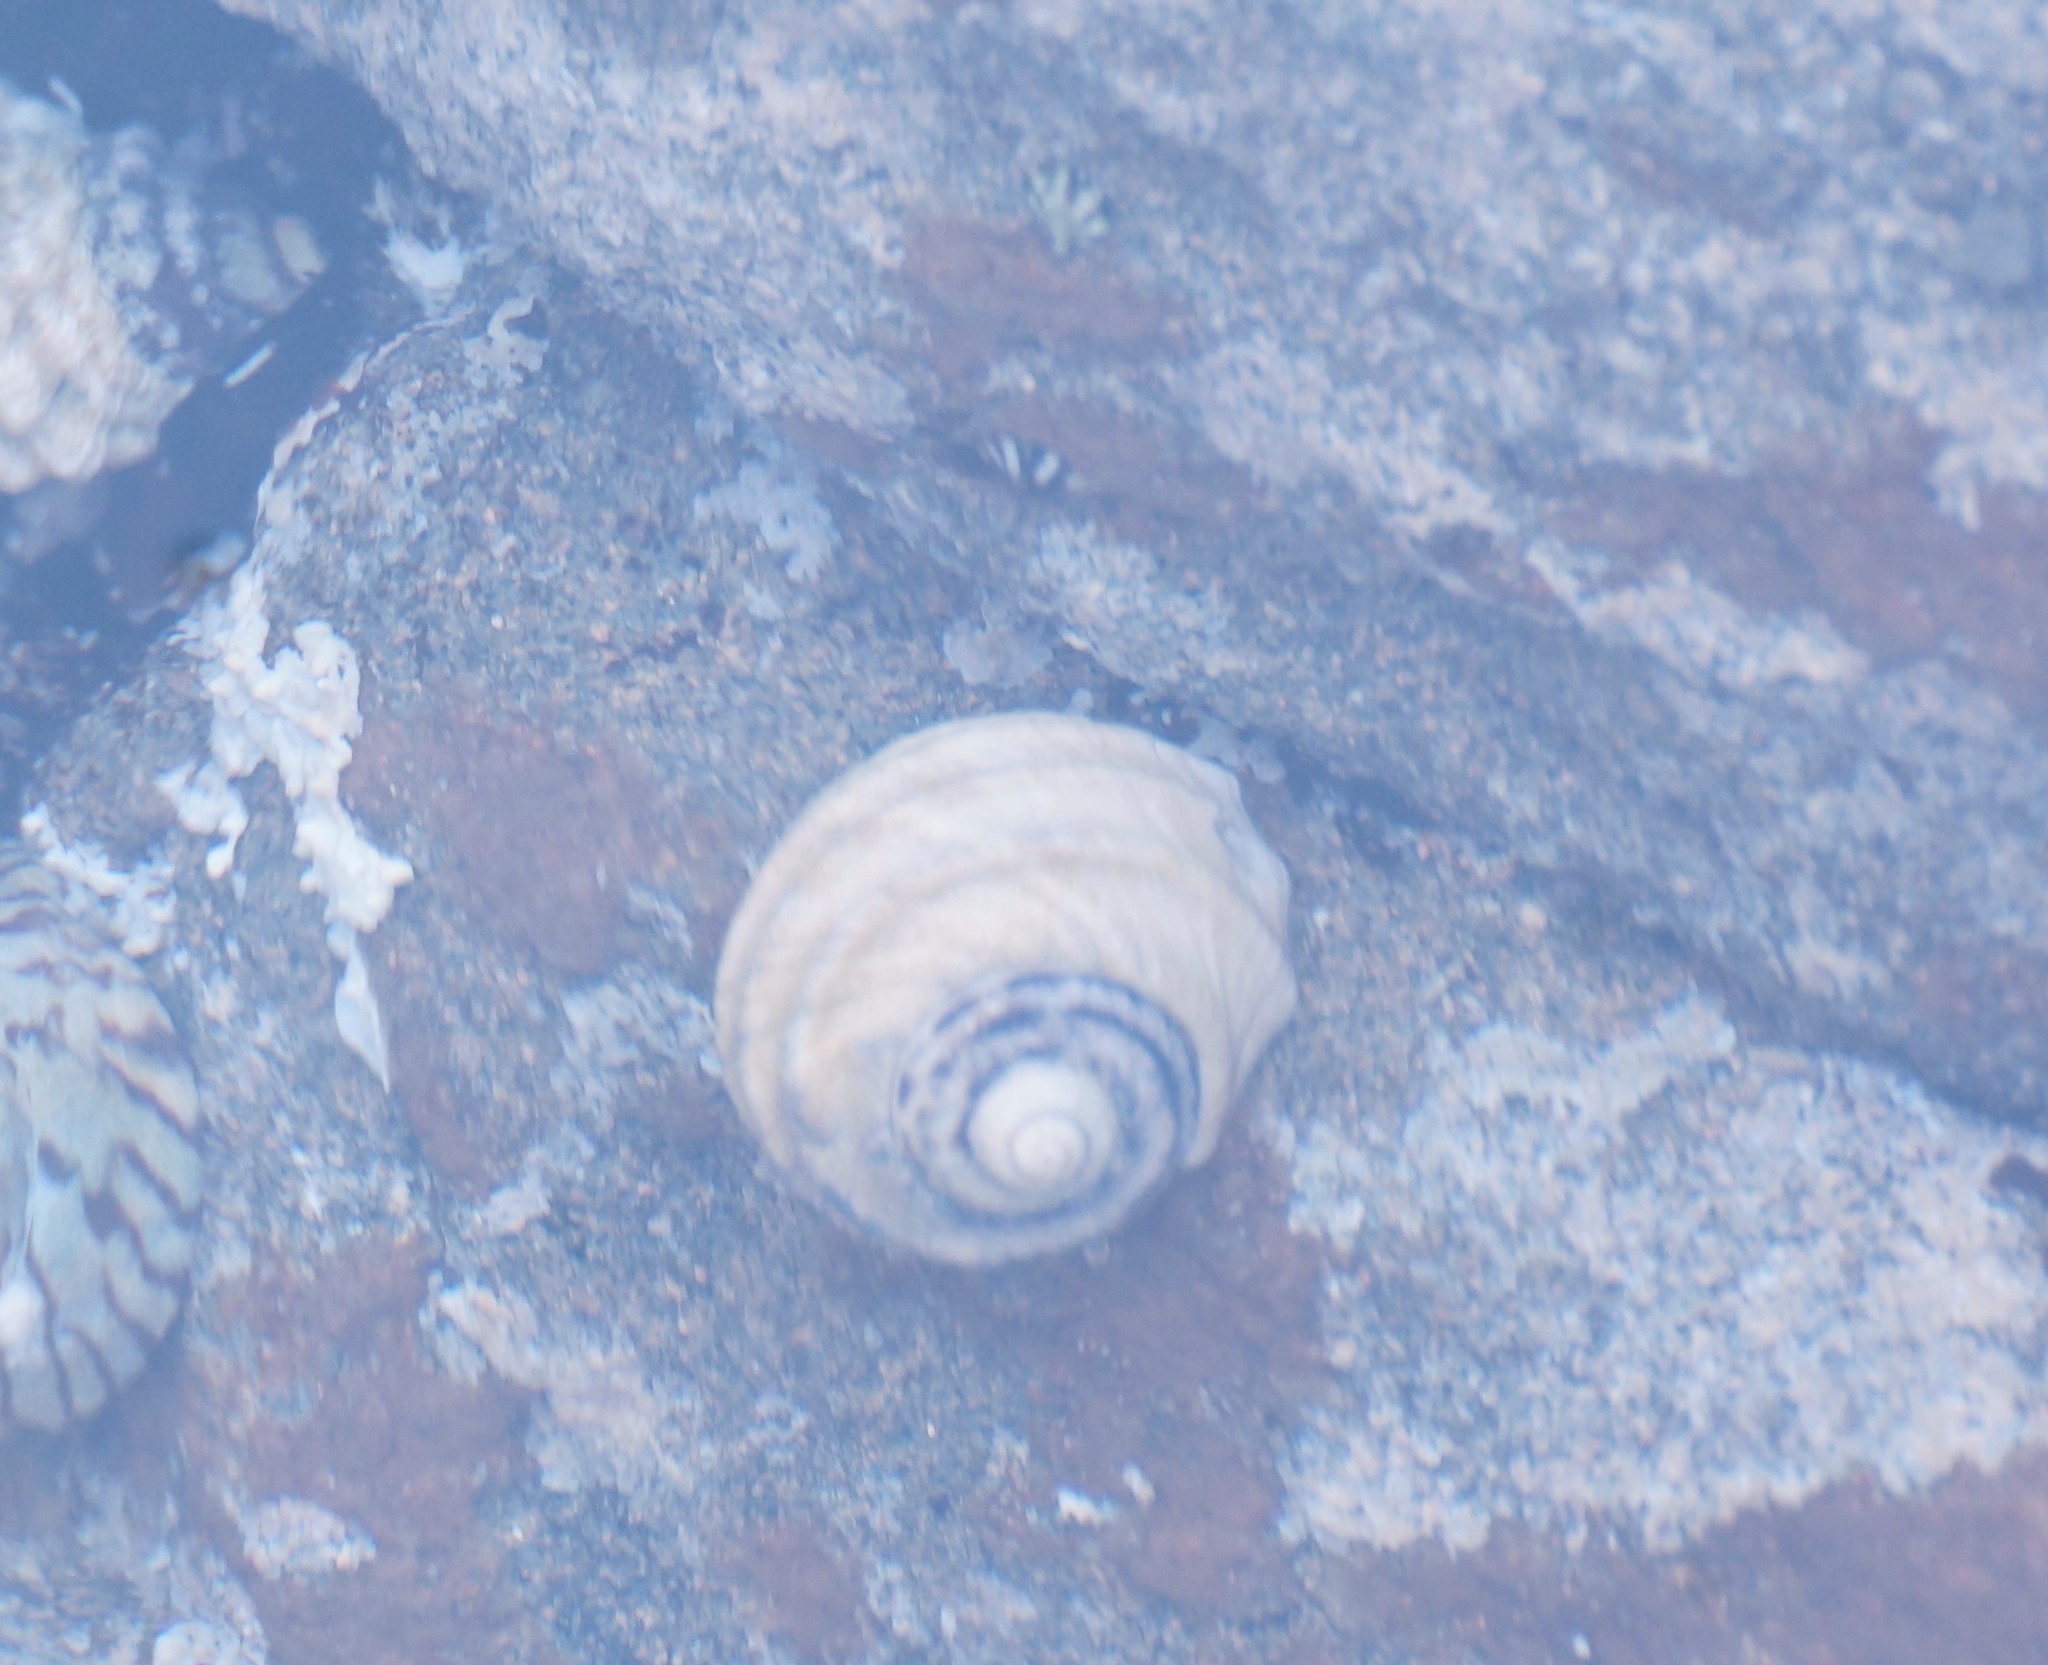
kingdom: Animalia
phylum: Mollusca
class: Gastropoda
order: Trochida
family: Trochidae
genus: Austrocochlea
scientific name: Austrocochlea constricta
